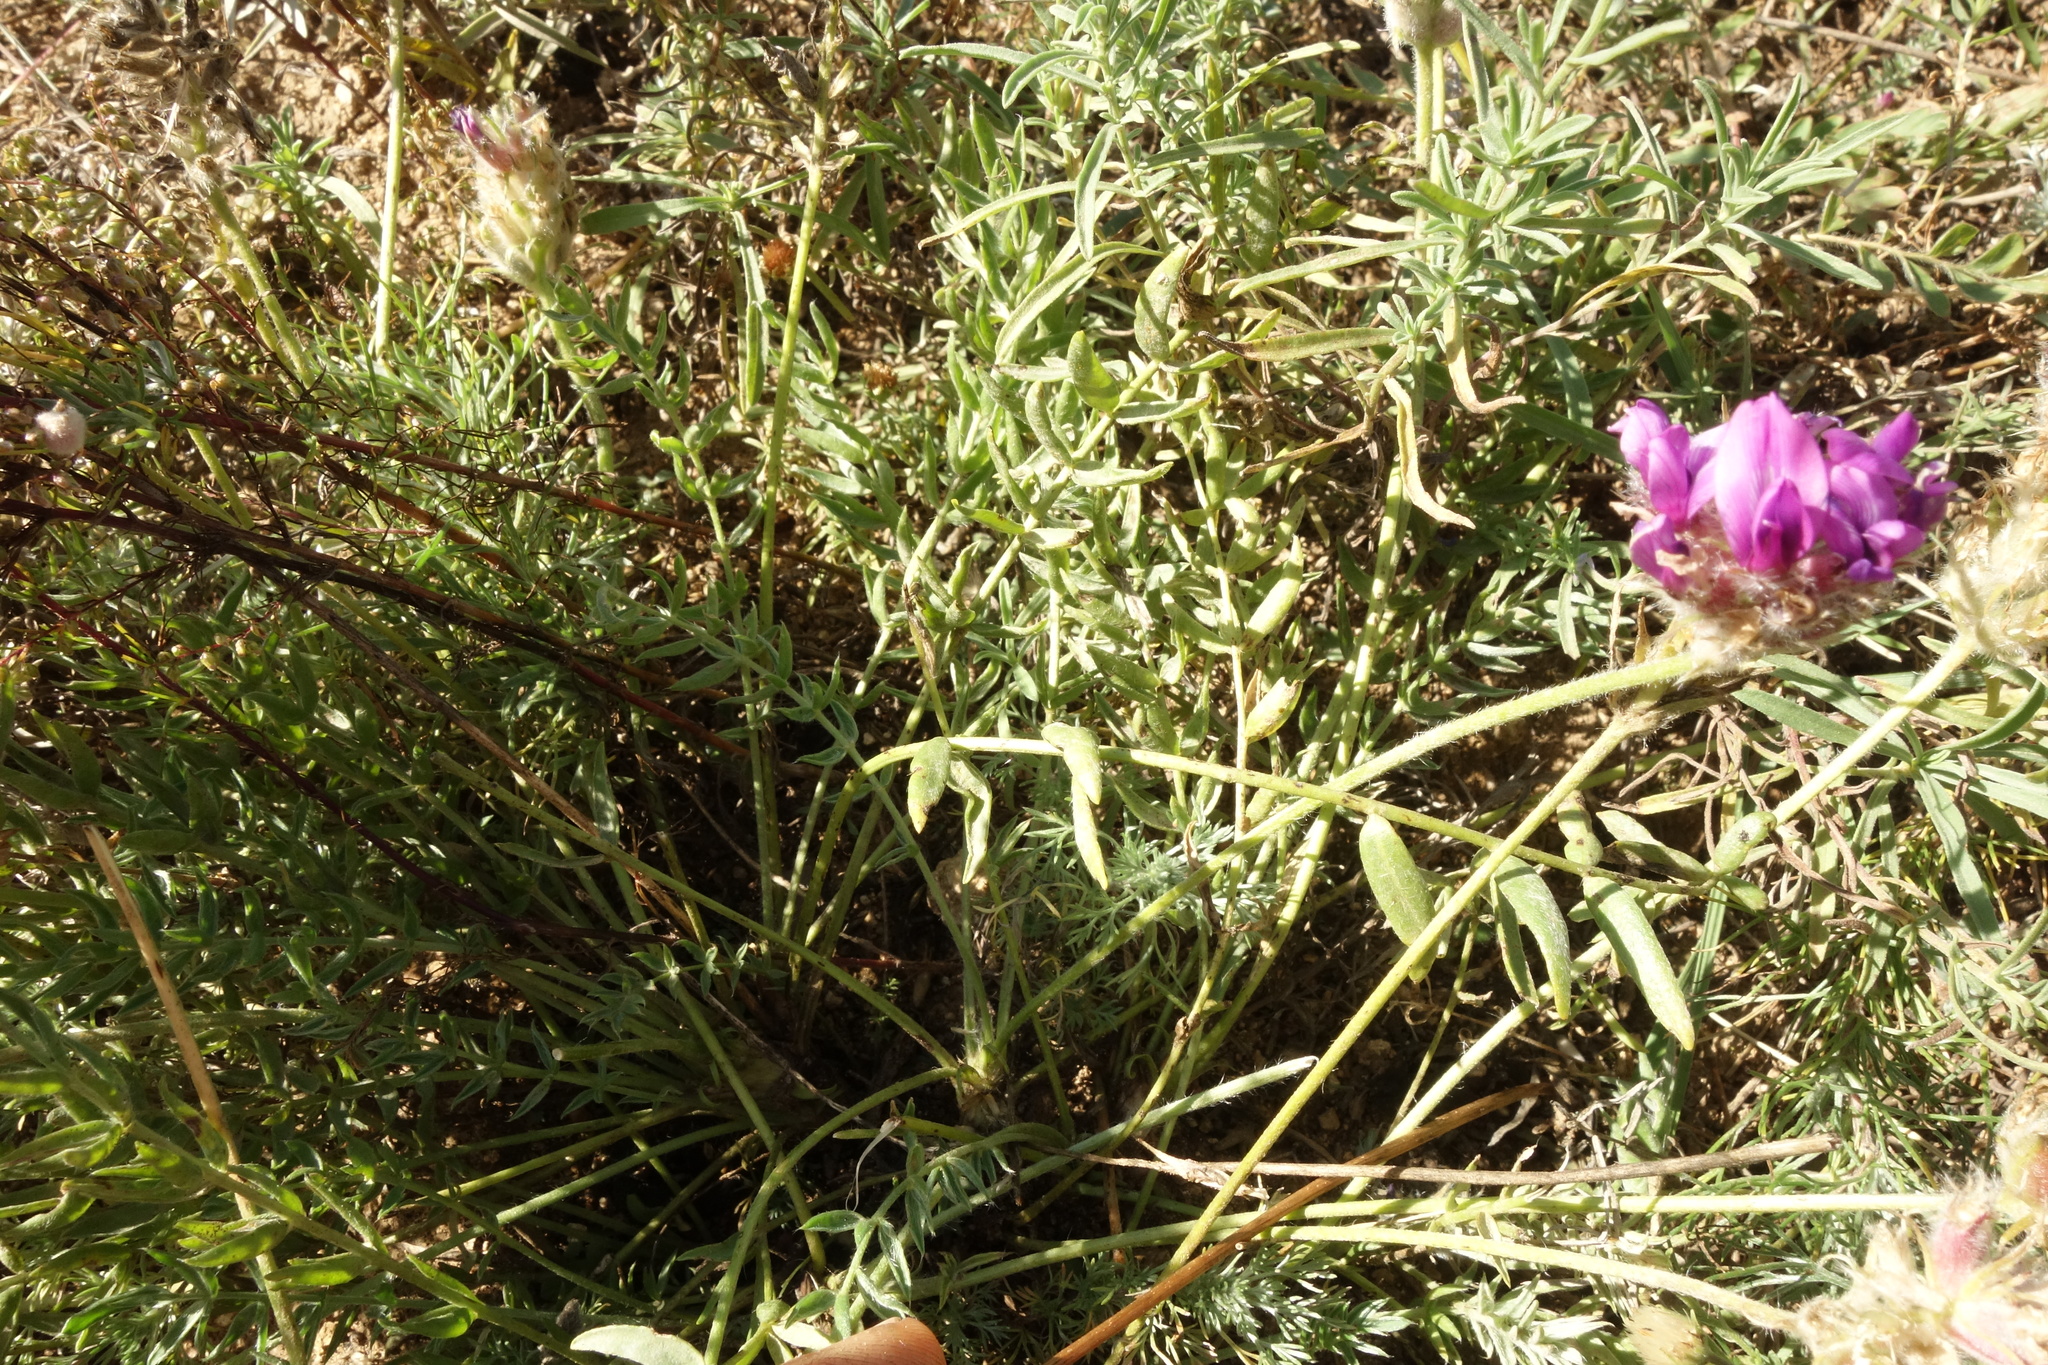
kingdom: Plantae
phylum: Tracheophyta
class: Magnoliopsida
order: Fabales
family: Fabaceae
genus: Oxytropis
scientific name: Oxytropis turczaninovii
